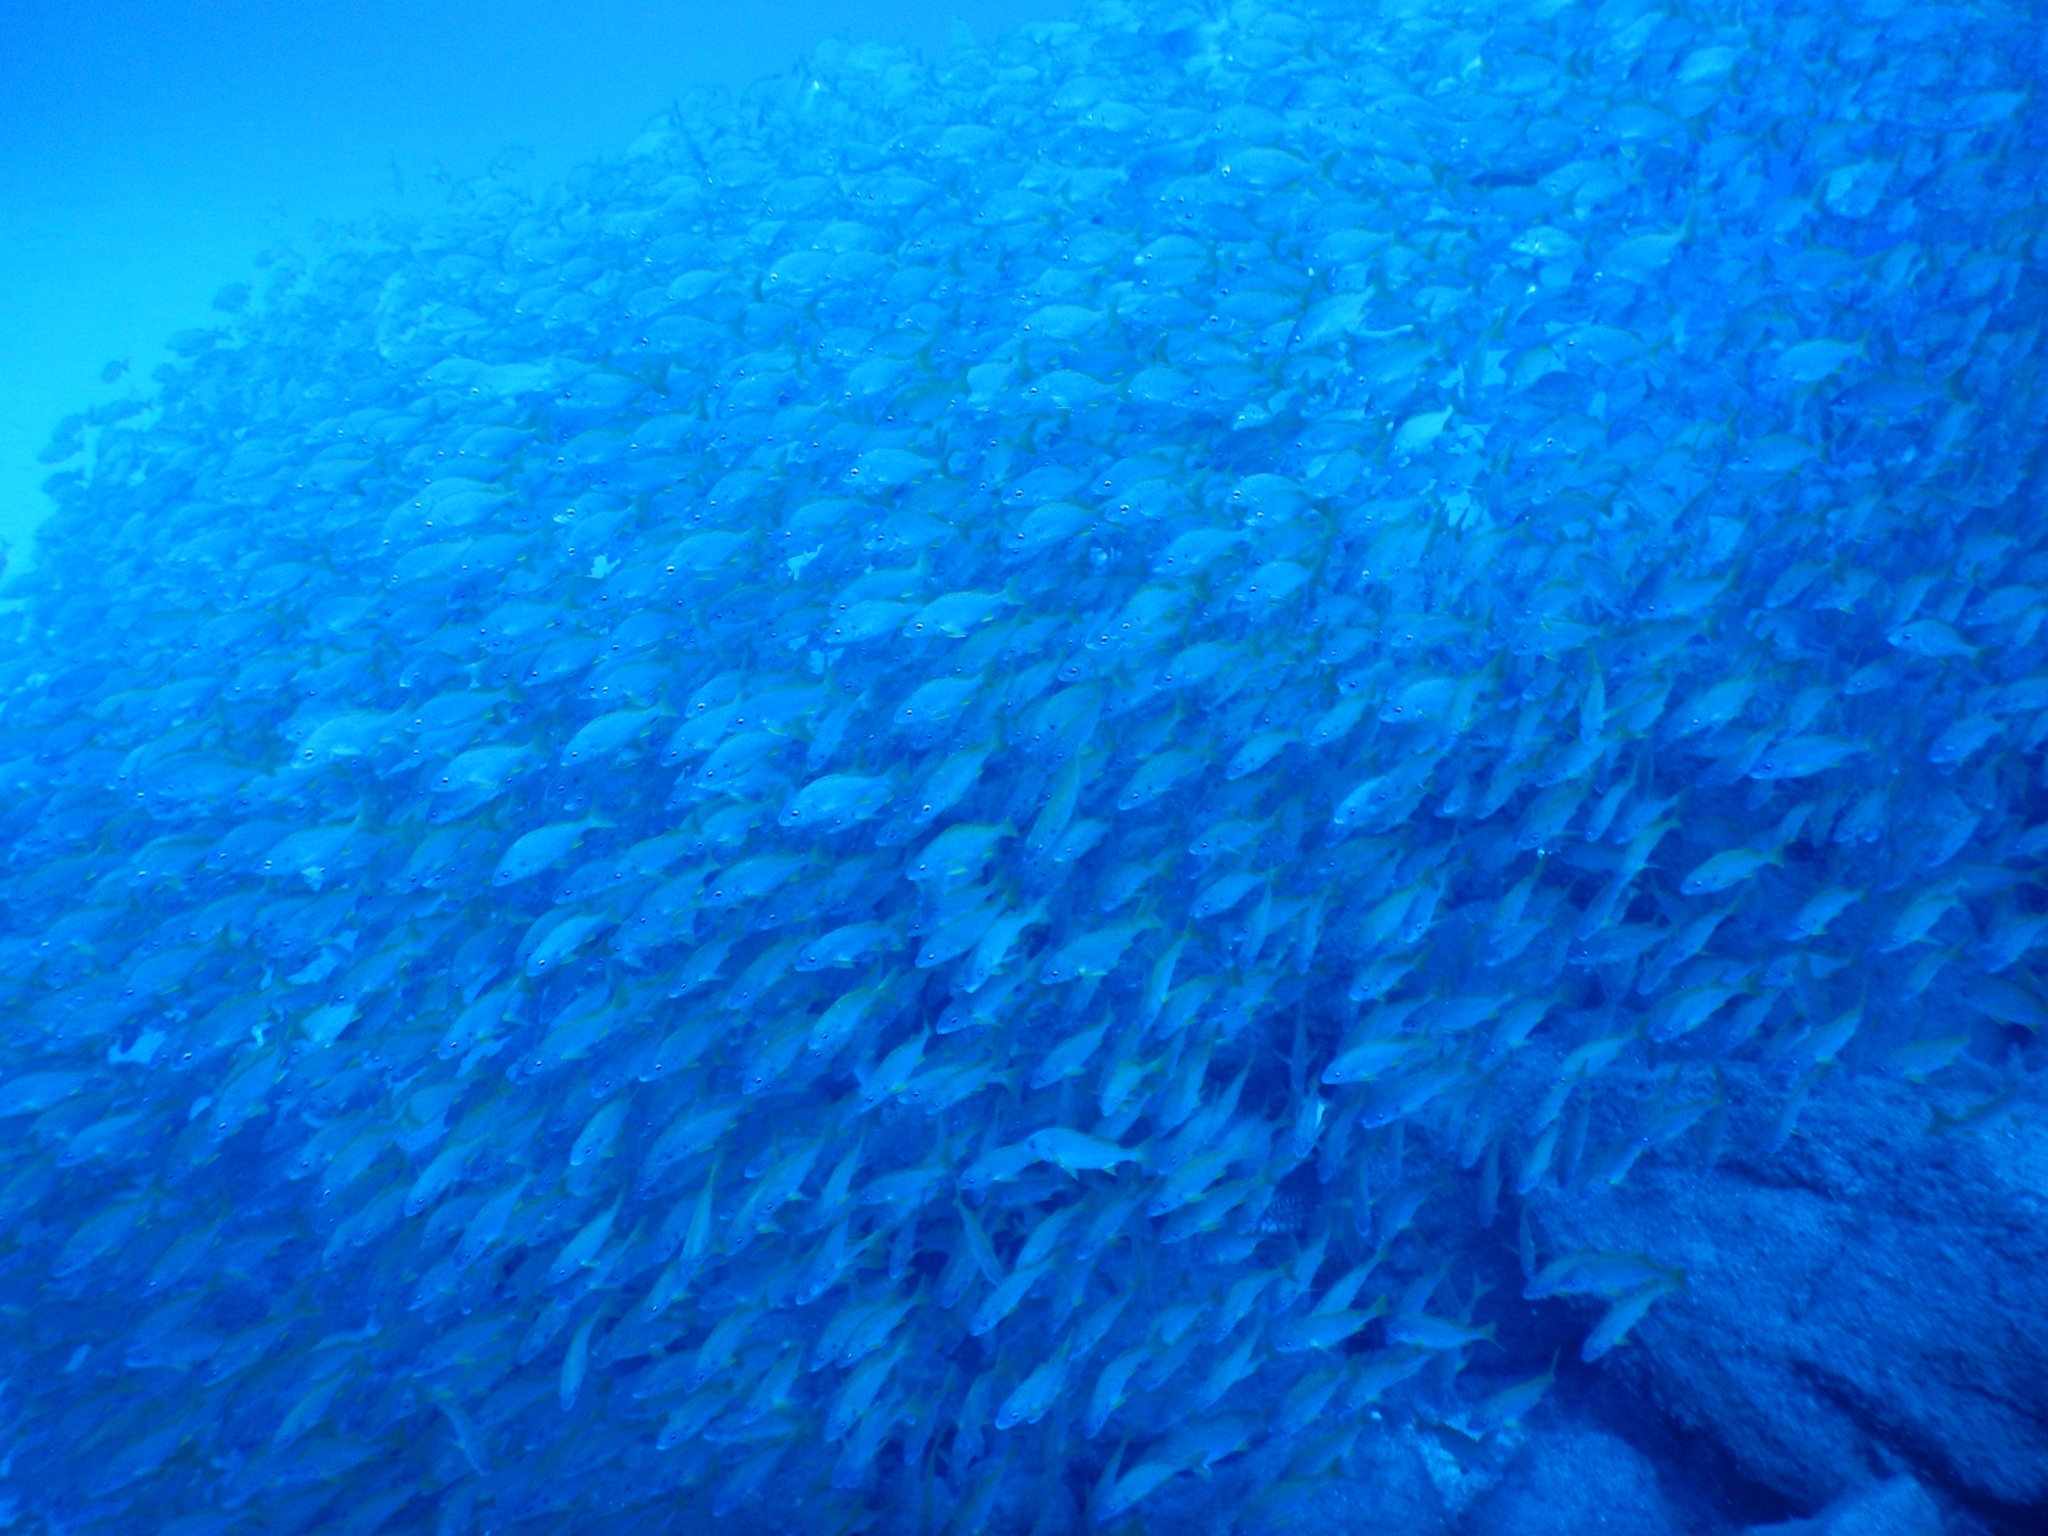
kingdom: Animalia
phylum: Chordata
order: Perciformes
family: Haemulidae
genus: Pomadasys
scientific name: Pomadasys incisus
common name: Bastard grunt
